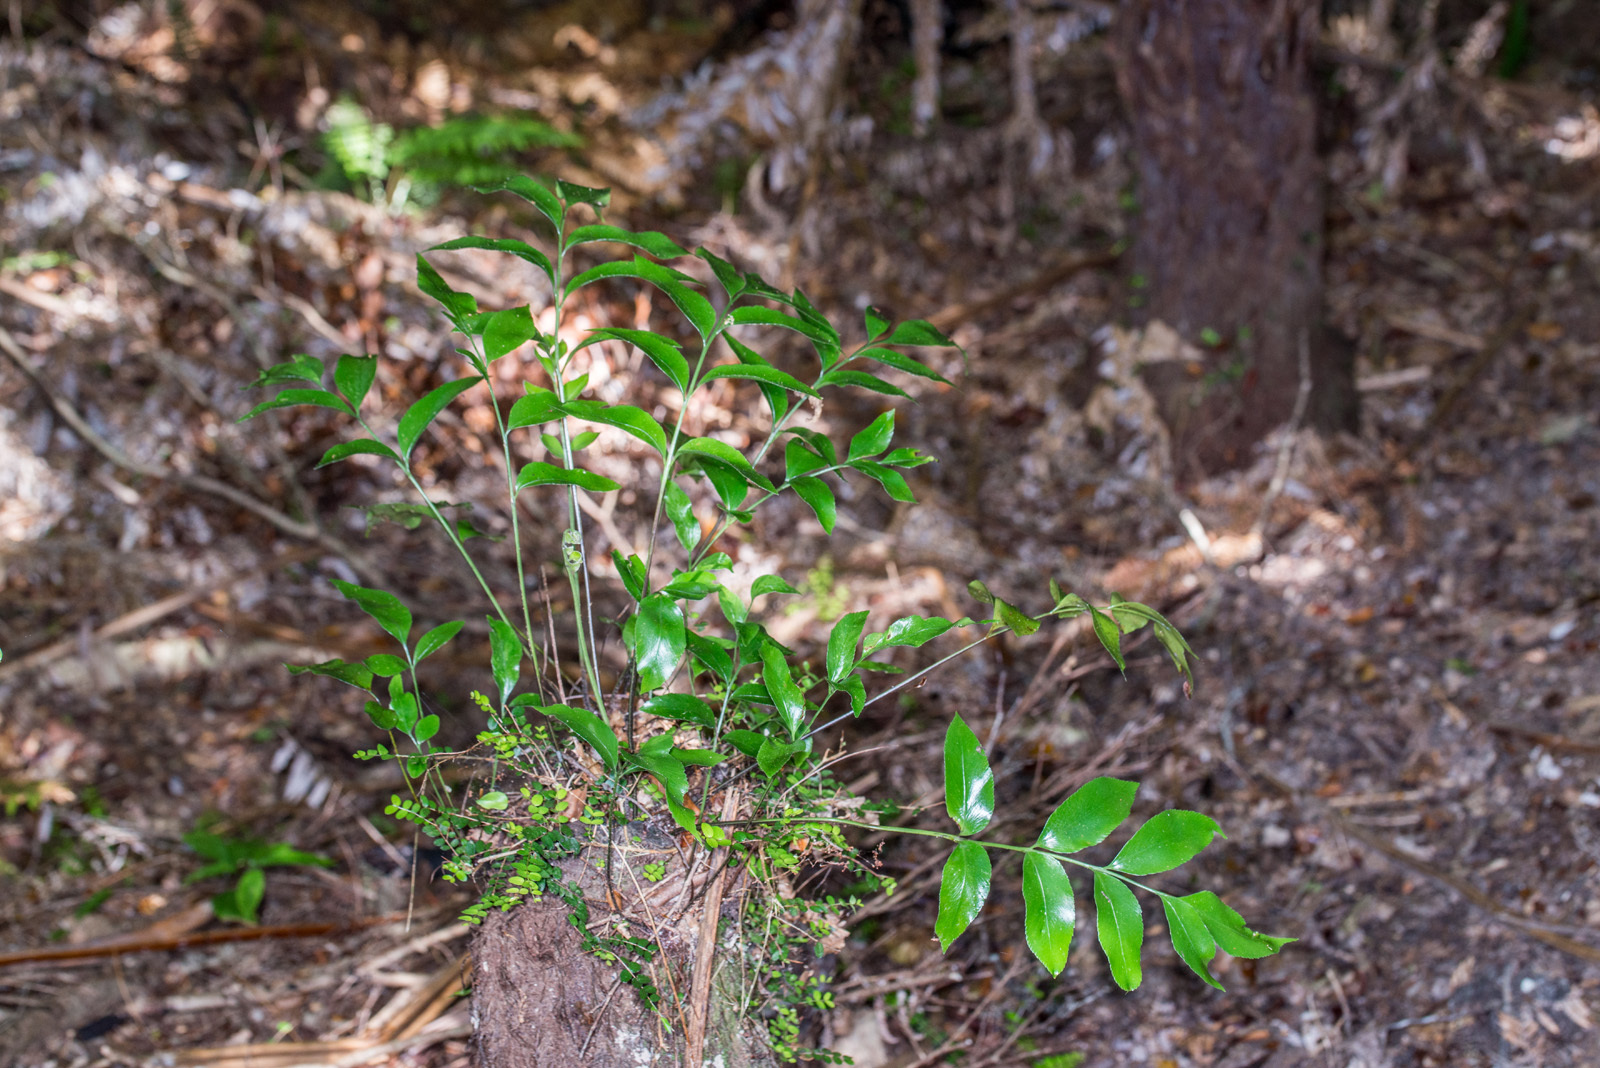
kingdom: Plantae
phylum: Tracheophyta
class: Polypodiopsida
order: Polypodiales
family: Aspleniaceae
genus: Asplenium
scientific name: Asplenium oblongifolium
